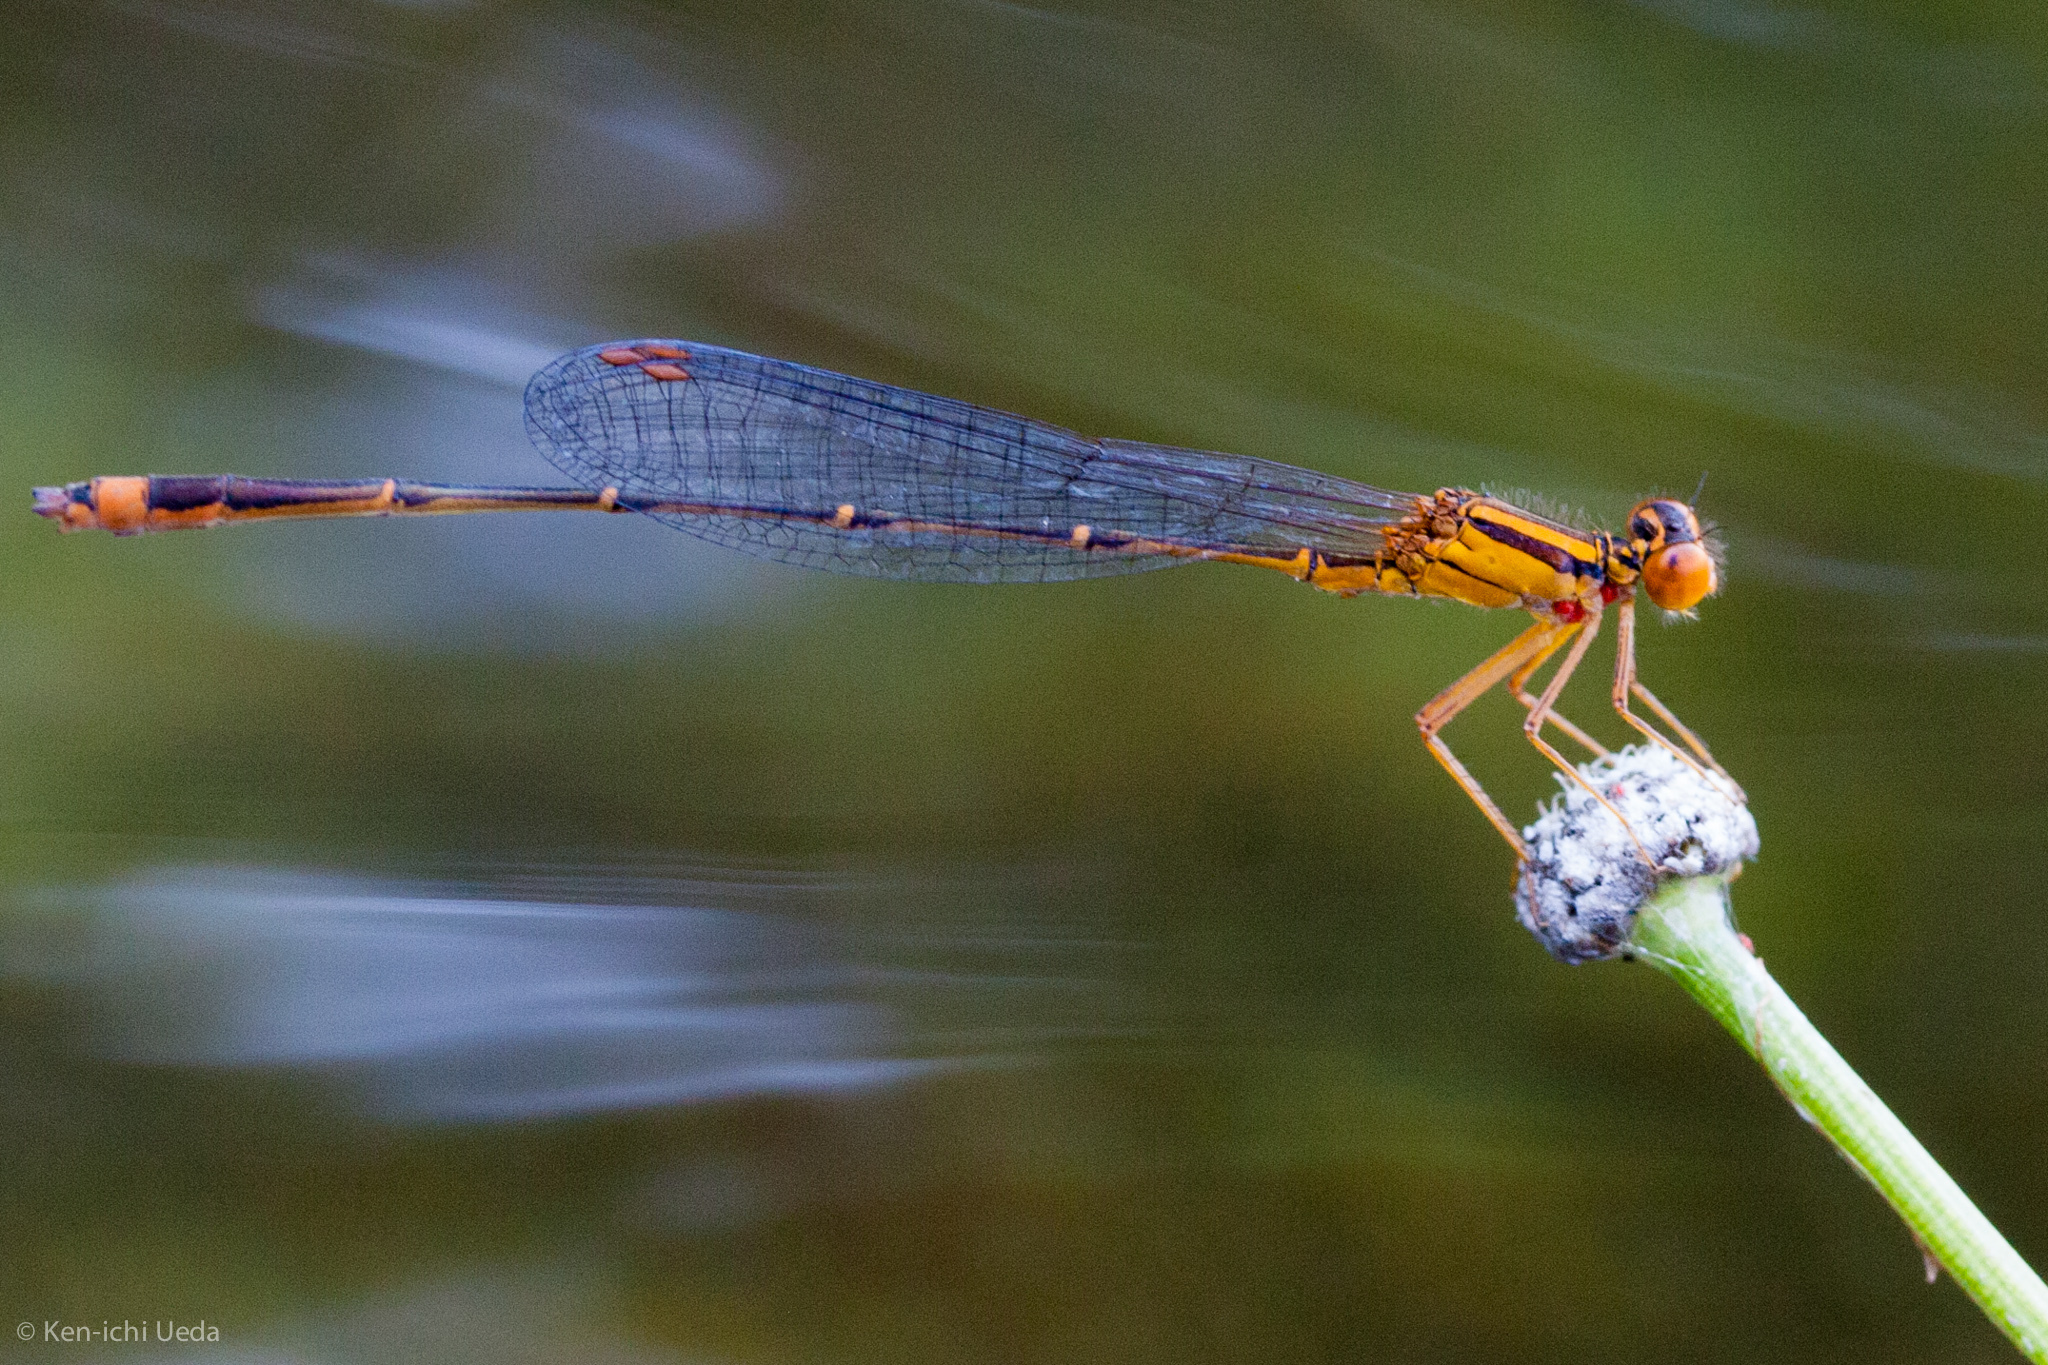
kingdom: Animalia
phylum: Arthropoda
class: Insecta
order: Odonata
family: Coenagrionidae
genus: Enallagma
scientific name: Enallagma signatum
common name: Orange bluet
